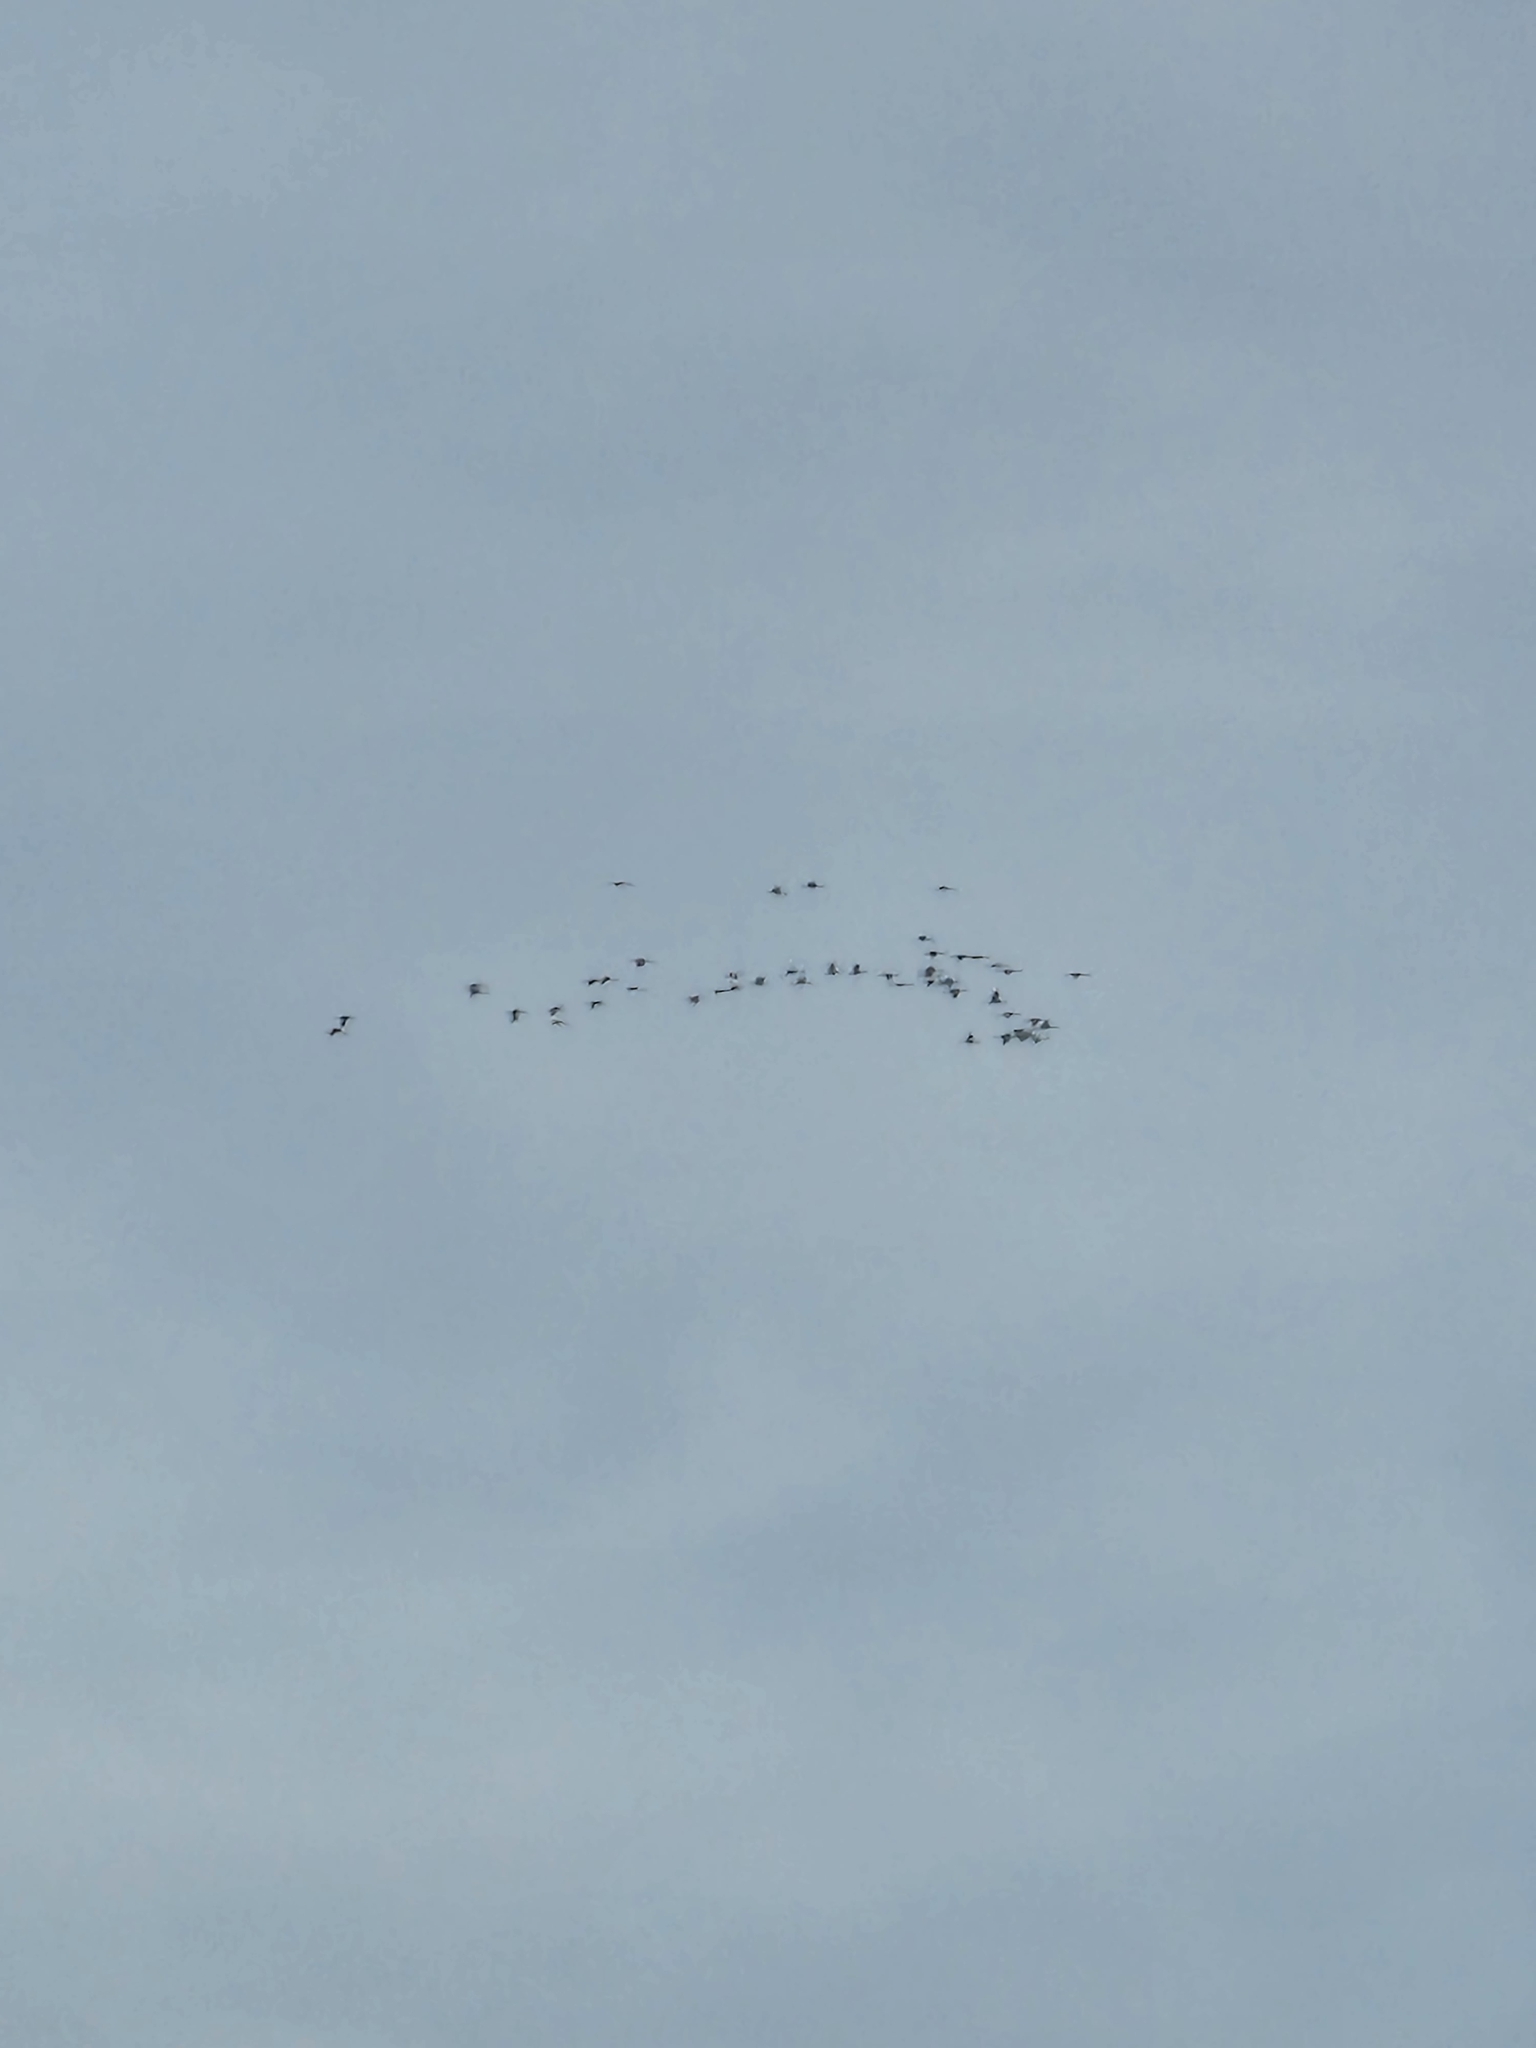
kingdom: Animalia
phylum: Chordata
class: Aves
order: Gruiformes
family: Gruidae
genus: Grus
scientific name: Grus canadensis
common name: Sandhill crane
